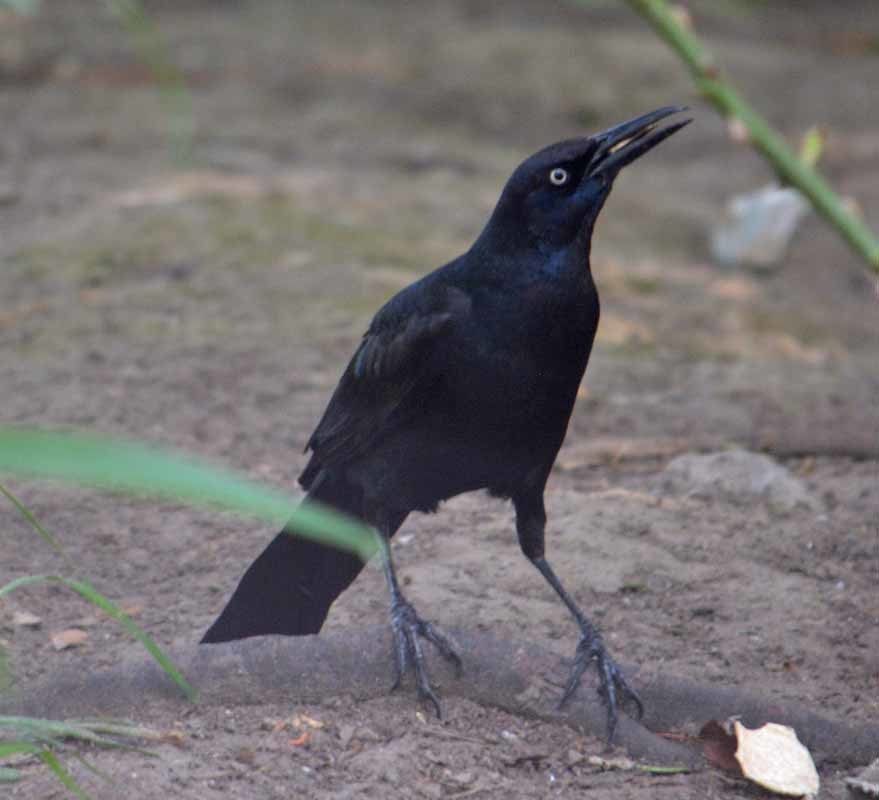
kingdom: Animalia
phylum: Chordata
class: Aves
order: Passeriformes
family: Icteridae
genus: Quiscalus
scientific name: Quiscalus mexicanus
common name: Great-tailed grackle
